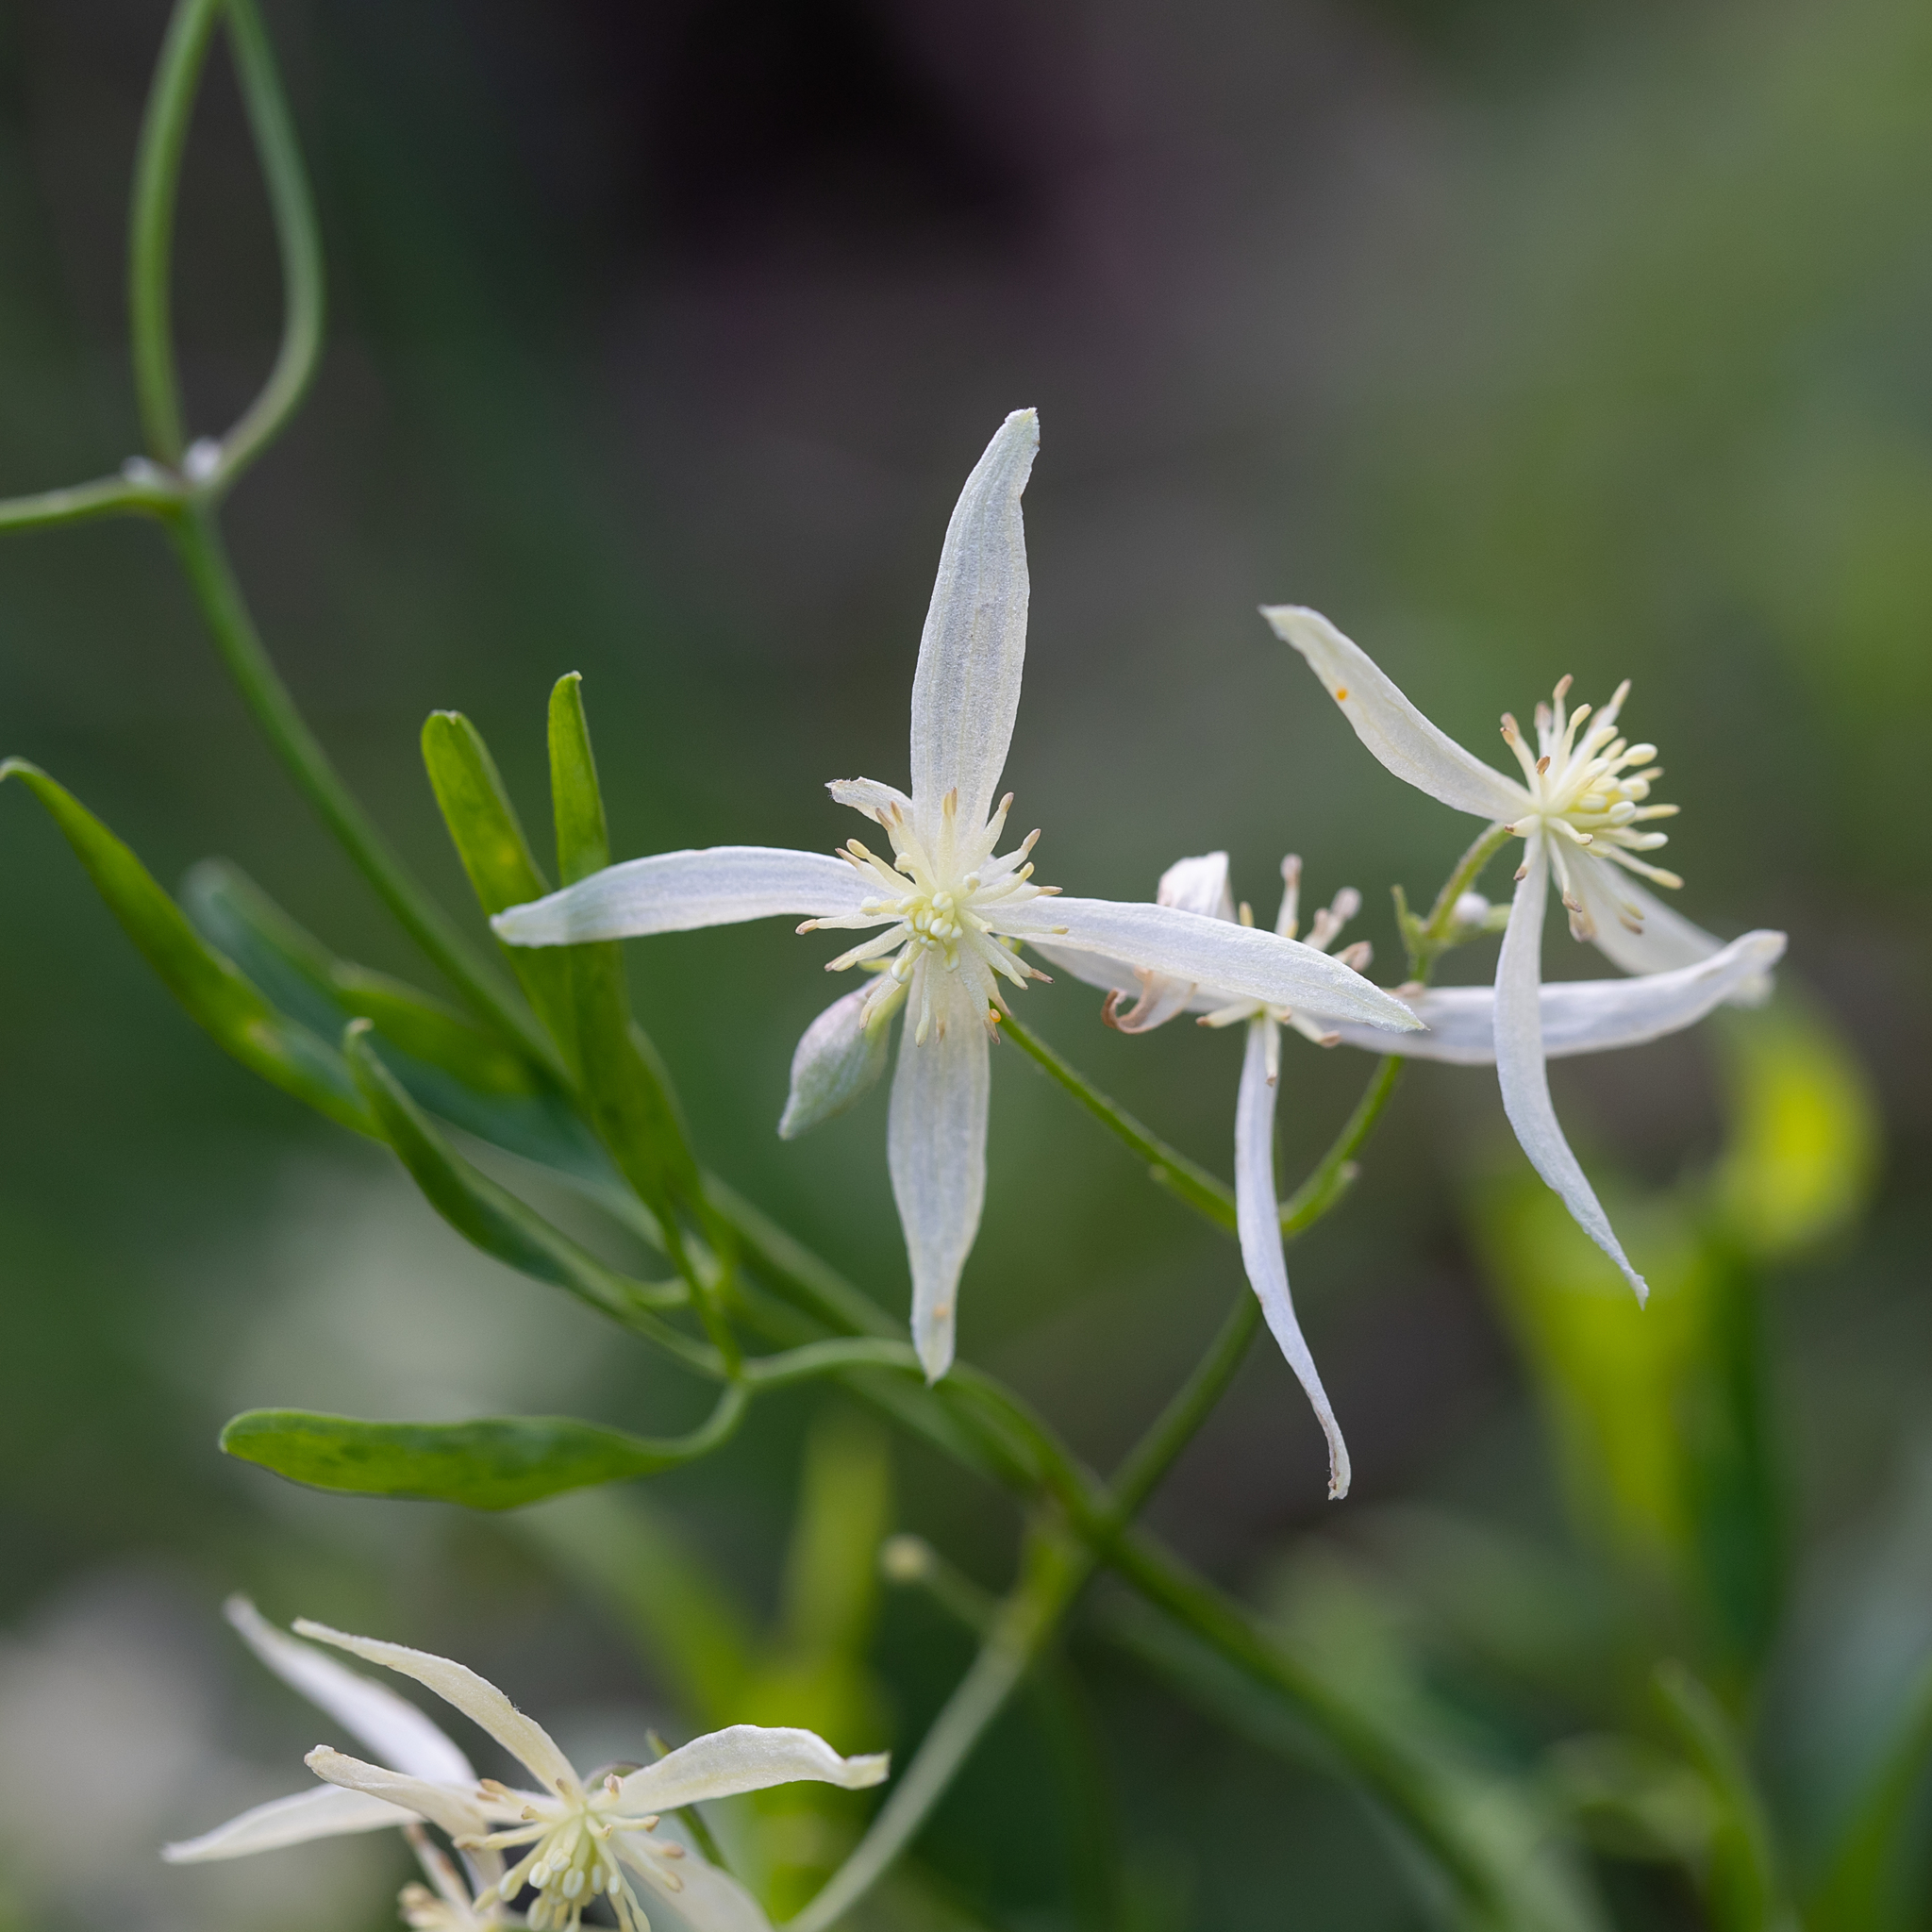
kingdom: Plantae
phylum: Tracheophyta
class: Magnoliopsida
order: Ranunculales
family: Ranunculaceae
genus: Clematis
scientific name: Clematis microphylla
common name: Headachevine
